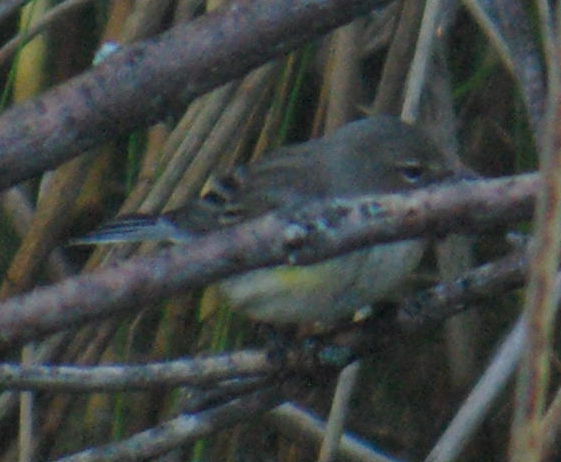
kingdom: Animalia
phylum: Chordata
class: Aves
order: Passeriformes
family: Parulidae
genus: Setophaga
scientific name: Setophaga coronata
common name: Myrtle warbler
